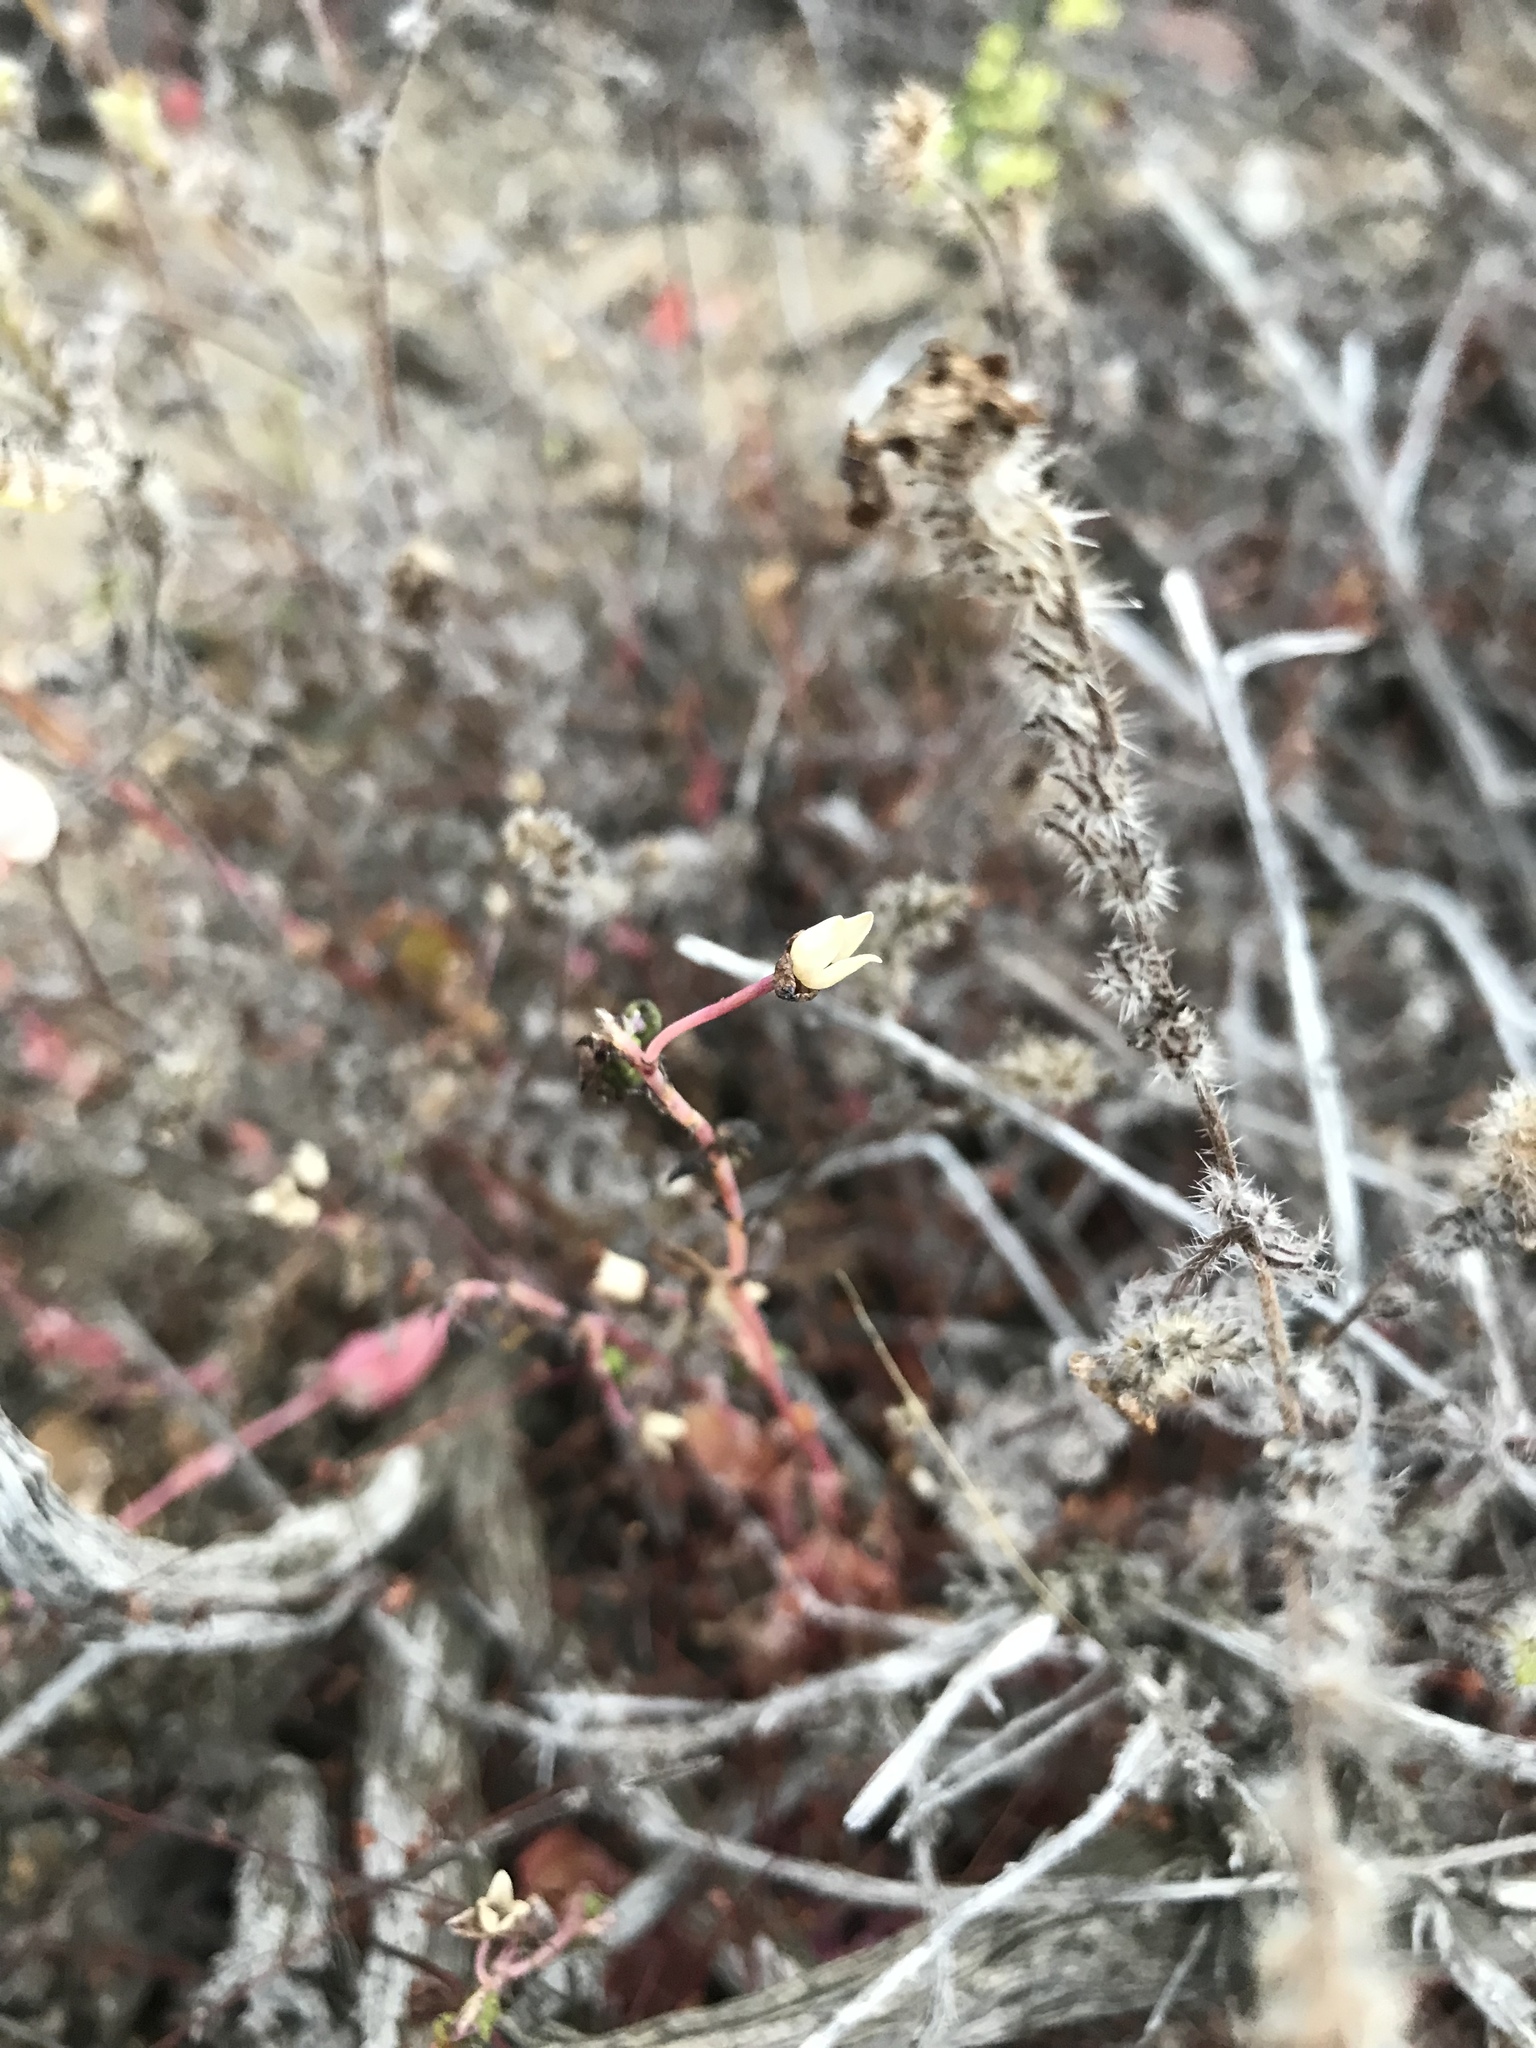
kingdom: Plantae
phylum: Tracheophyta
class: Magnoliopsida
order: Caryophyllales
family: Montiaceae
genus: Cistanthe
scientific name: Cistanthe maritima
